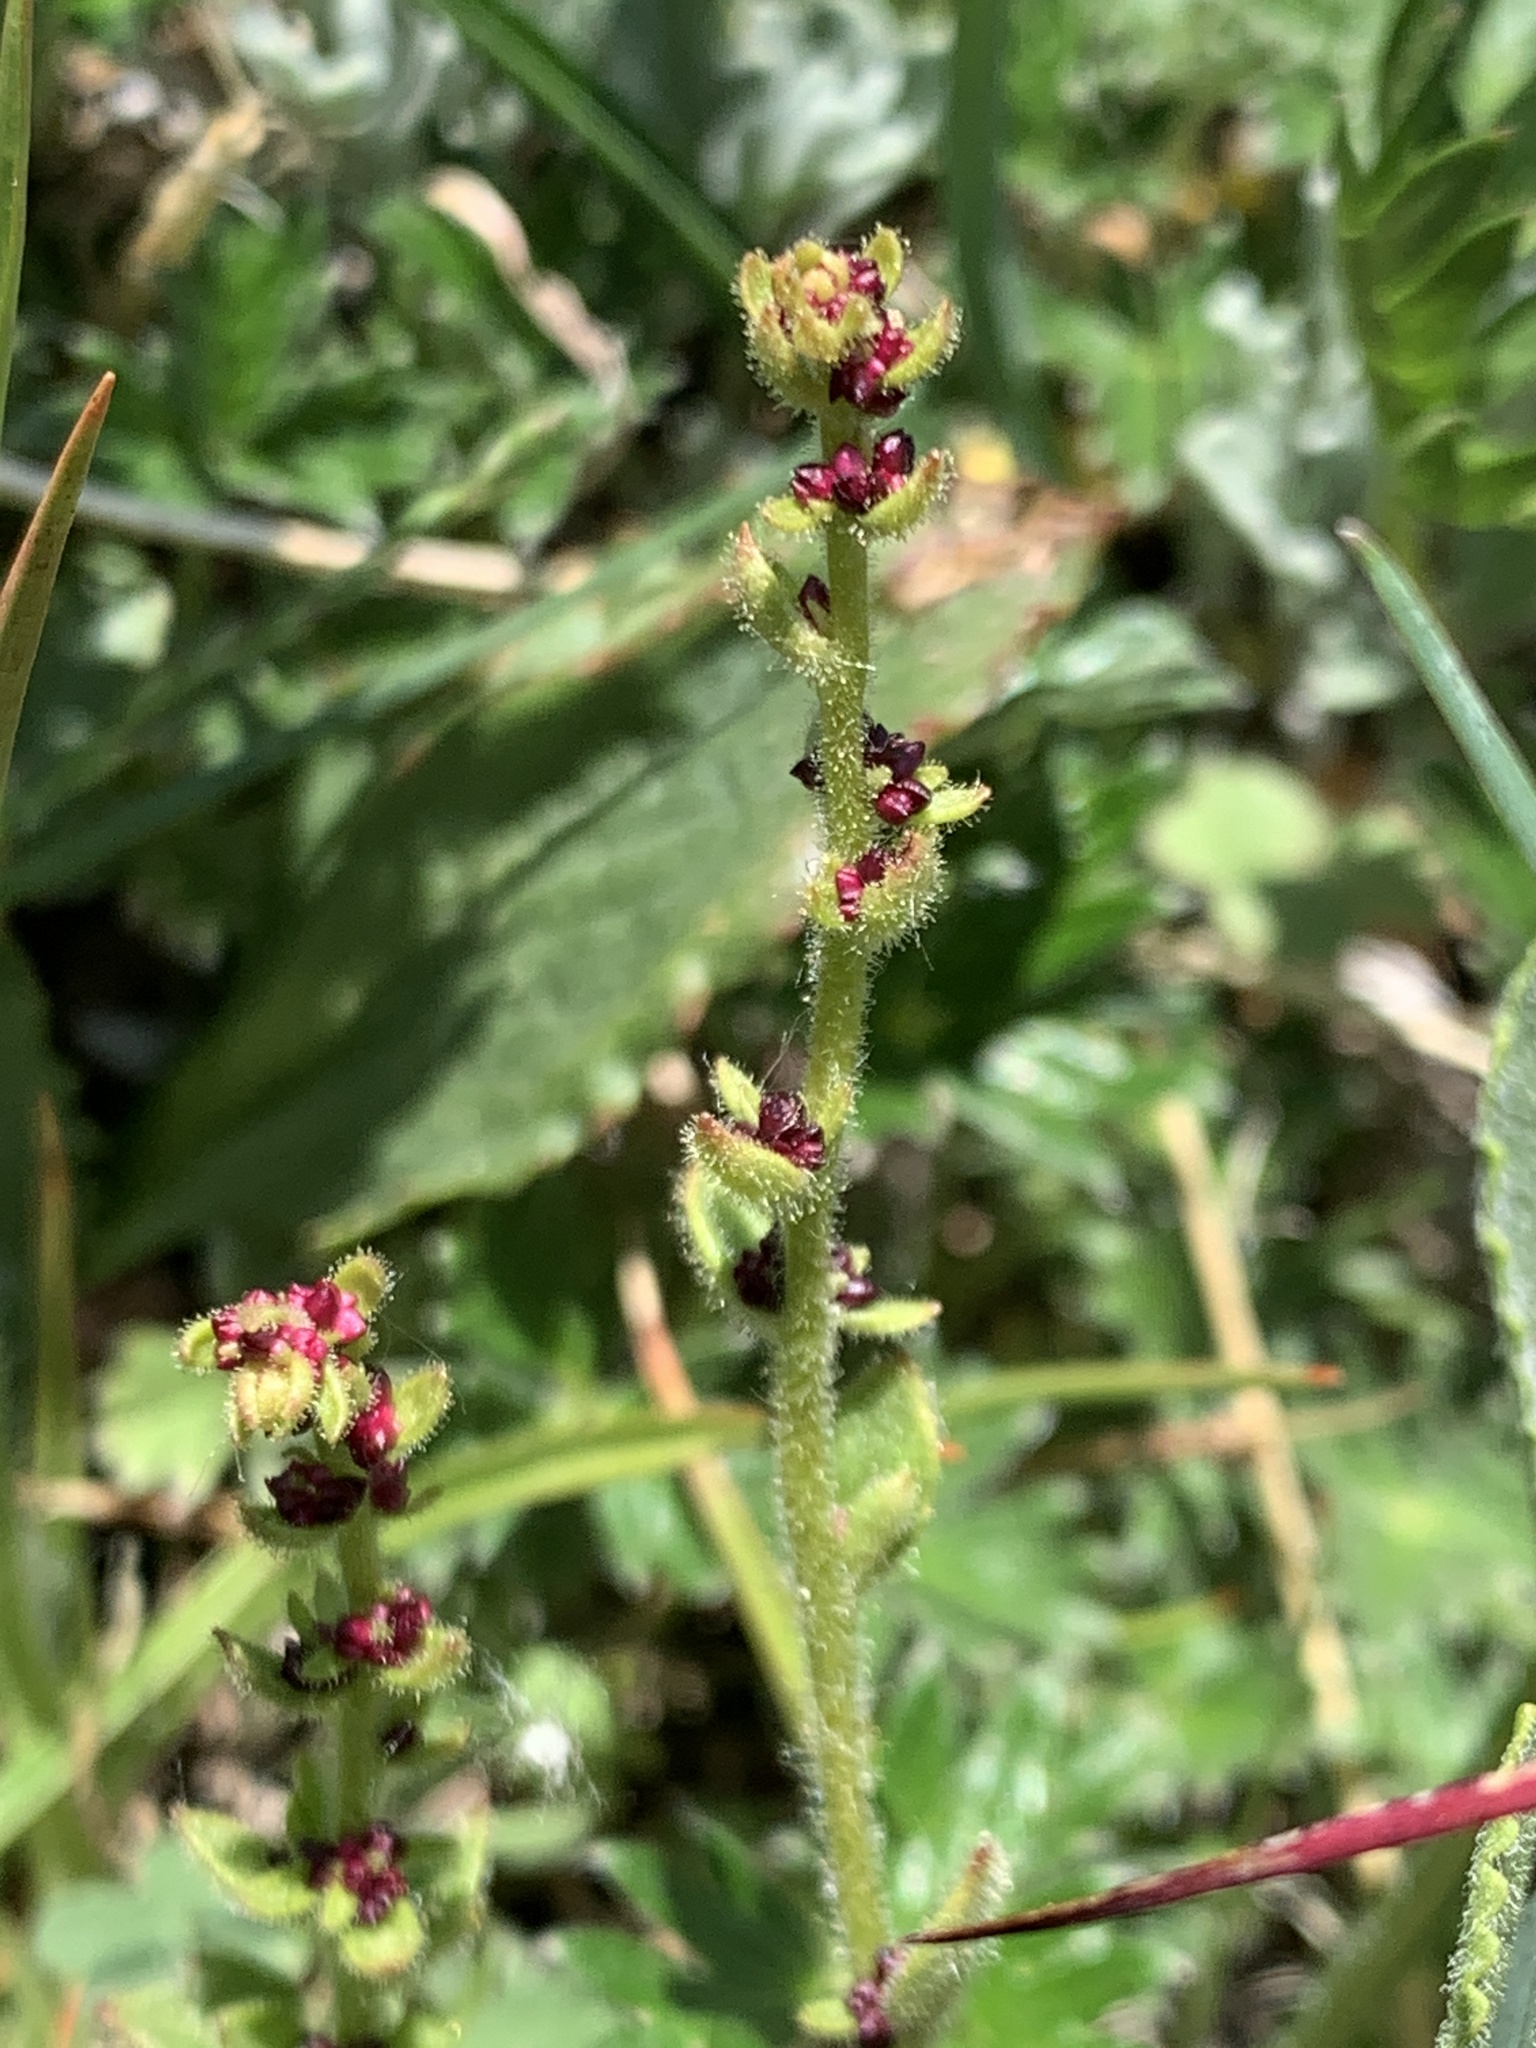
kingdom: Plantae
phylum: Tracheophyta
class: Magnoliopsida
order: Saxifragales
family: Saxifragaceae
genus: Saxifraga
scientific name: Saxifraga cernua
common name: Drooping saxifrage
